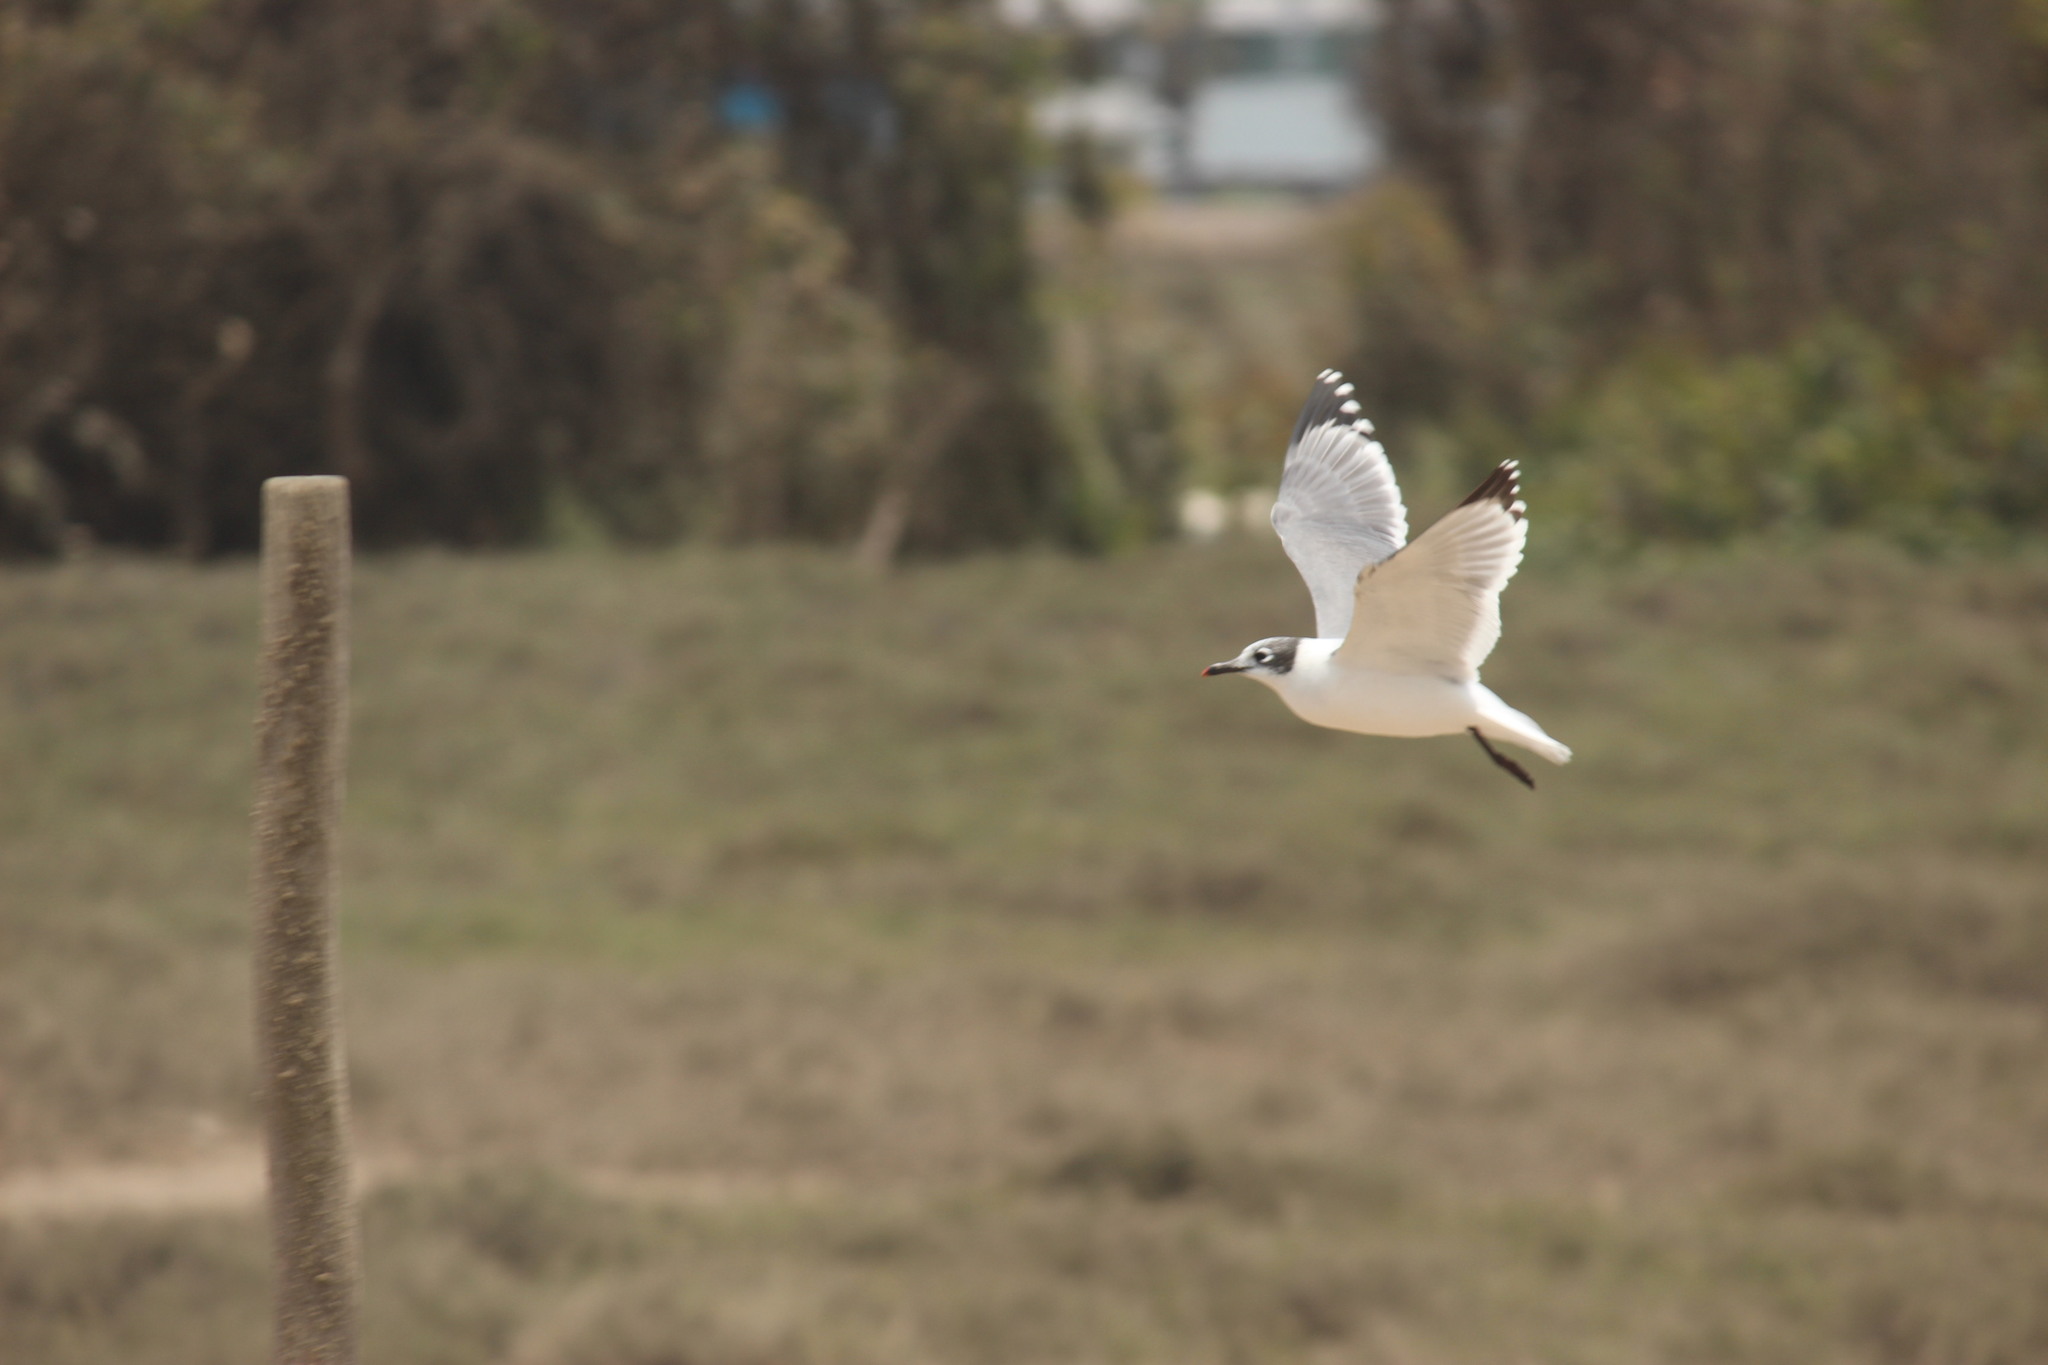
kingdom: Animalia
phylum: Chordata
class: Aves
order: Charadriiformes
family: Laridae
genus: Leucophaeus
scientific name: Leucophaeus pipixcan
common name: Franklin's gull
